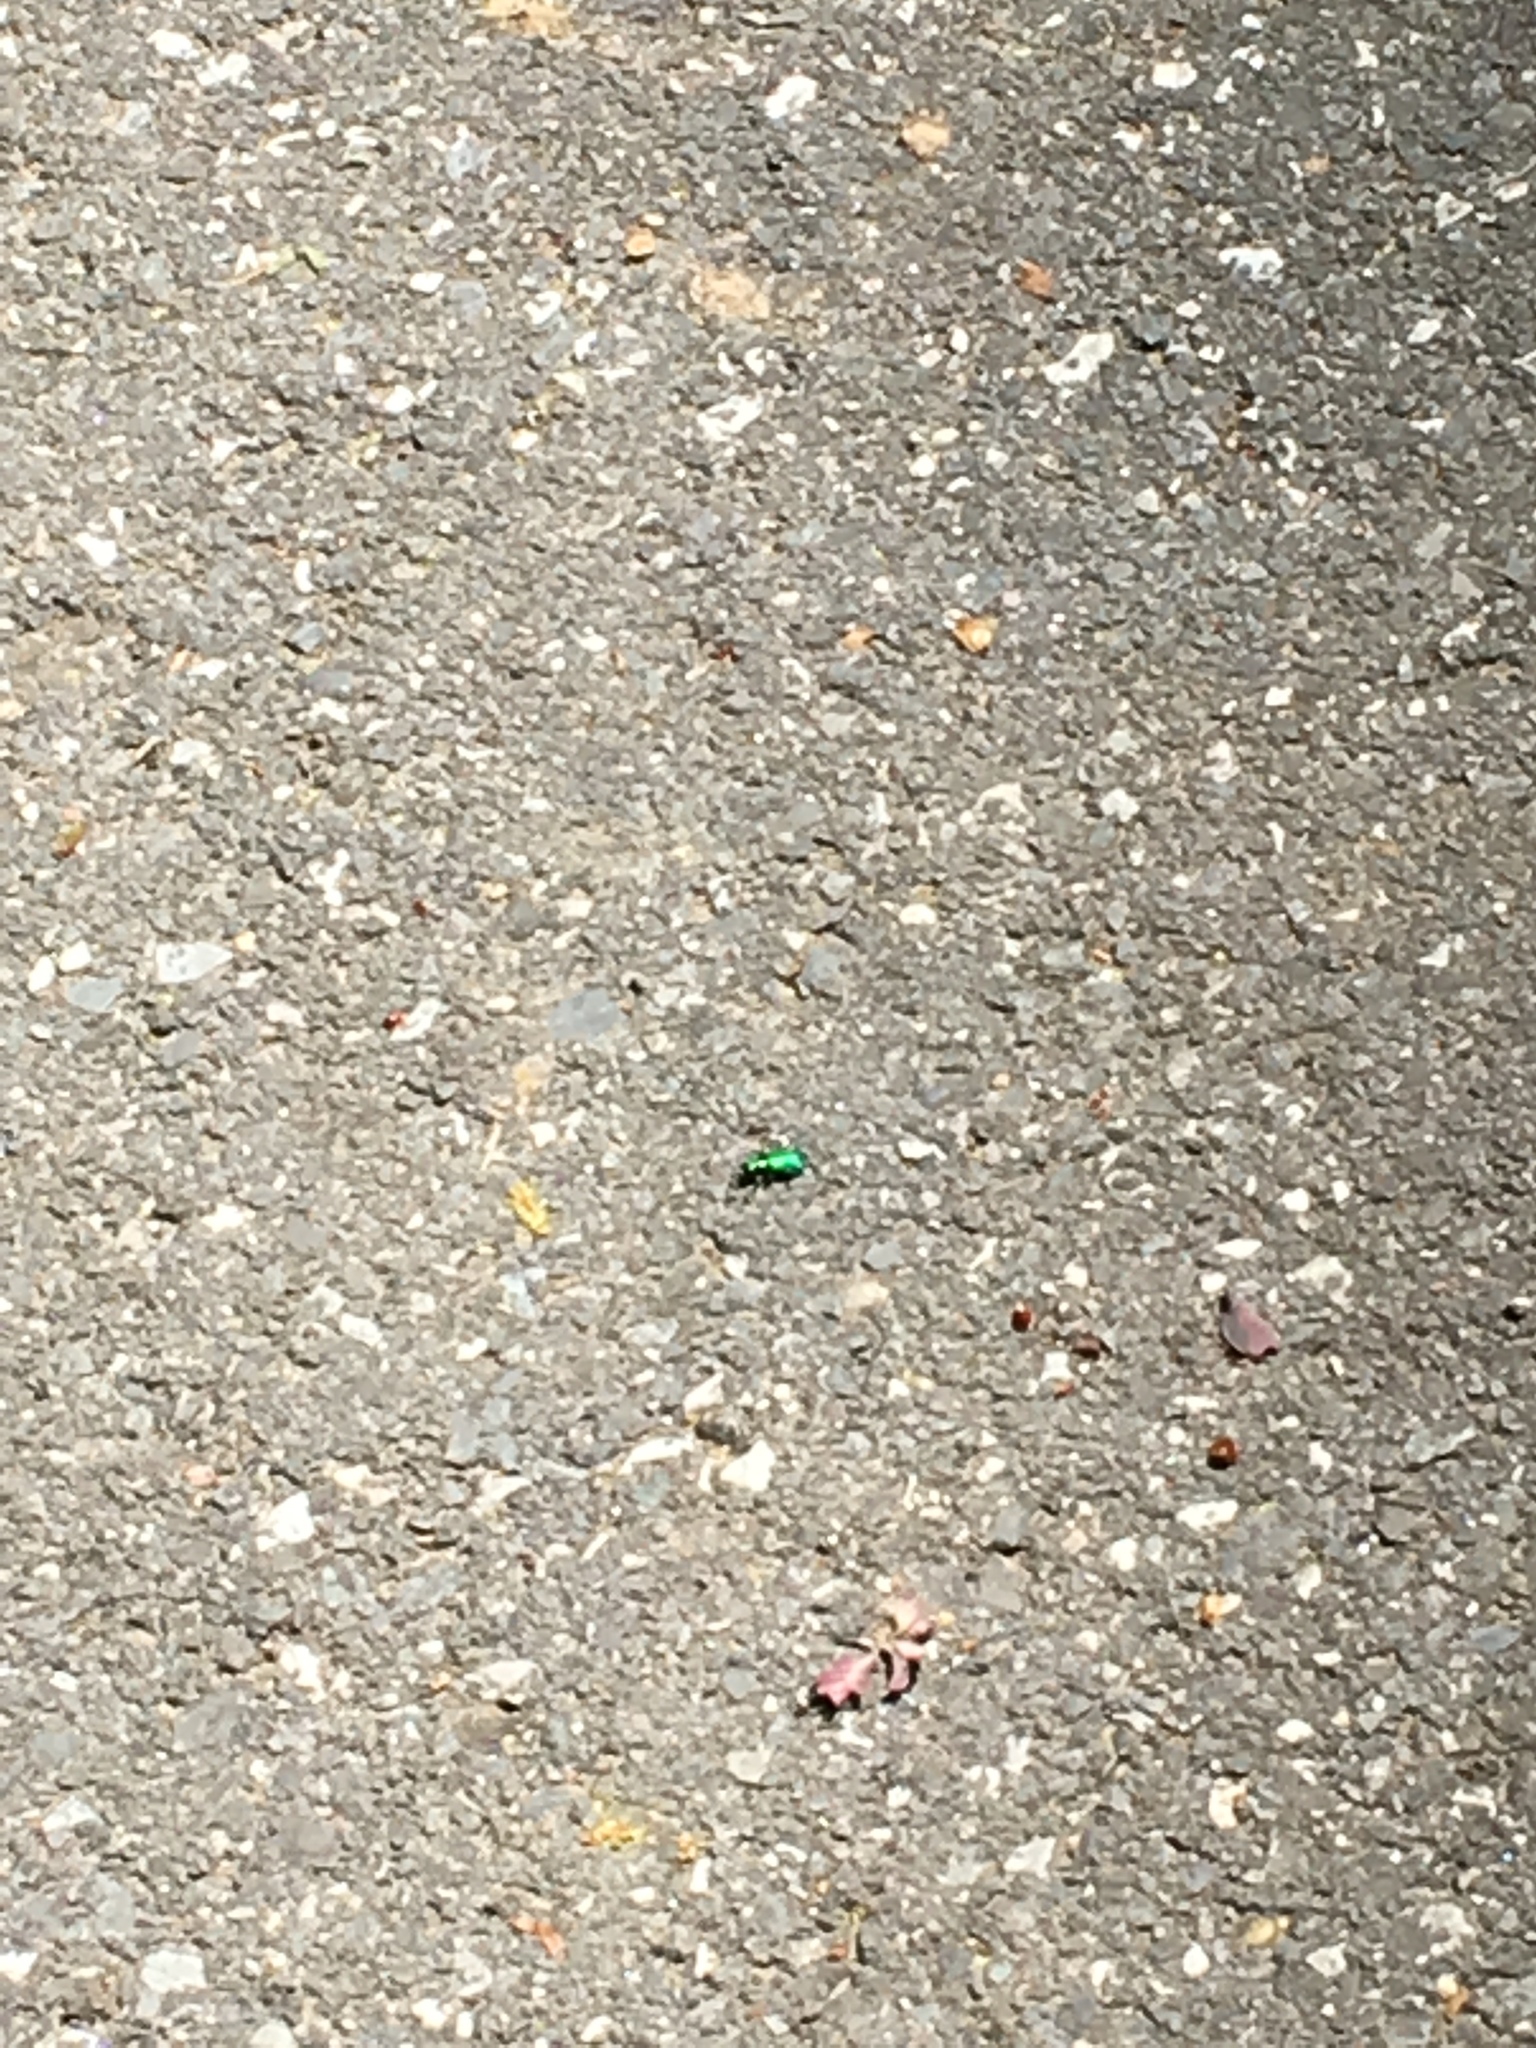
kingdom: Animalia
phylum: Arthropoda
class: Insecta
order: Coleoptera
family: Carabidae
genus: Cicindela
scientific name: Cicindela sexguttata
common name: Six-spotted tiger beetle
